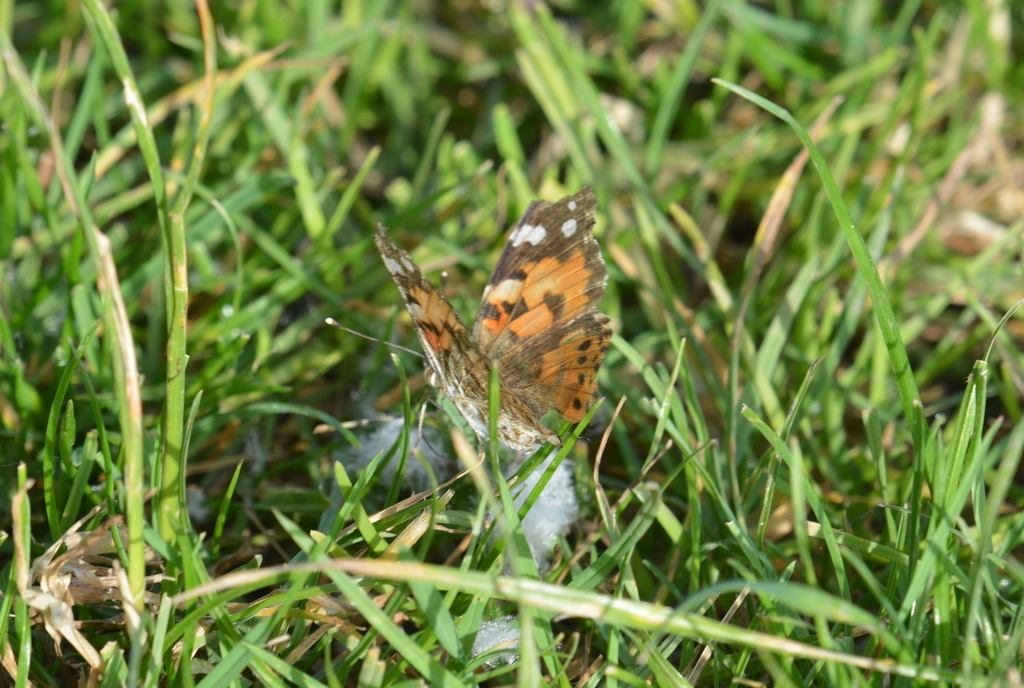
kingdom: Animalia
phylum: Arthropoda
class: Insecta
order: Lepidoptera
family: Nymphalidae
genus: Vanessa
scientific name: Vanessa cardui
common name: Painted lady
